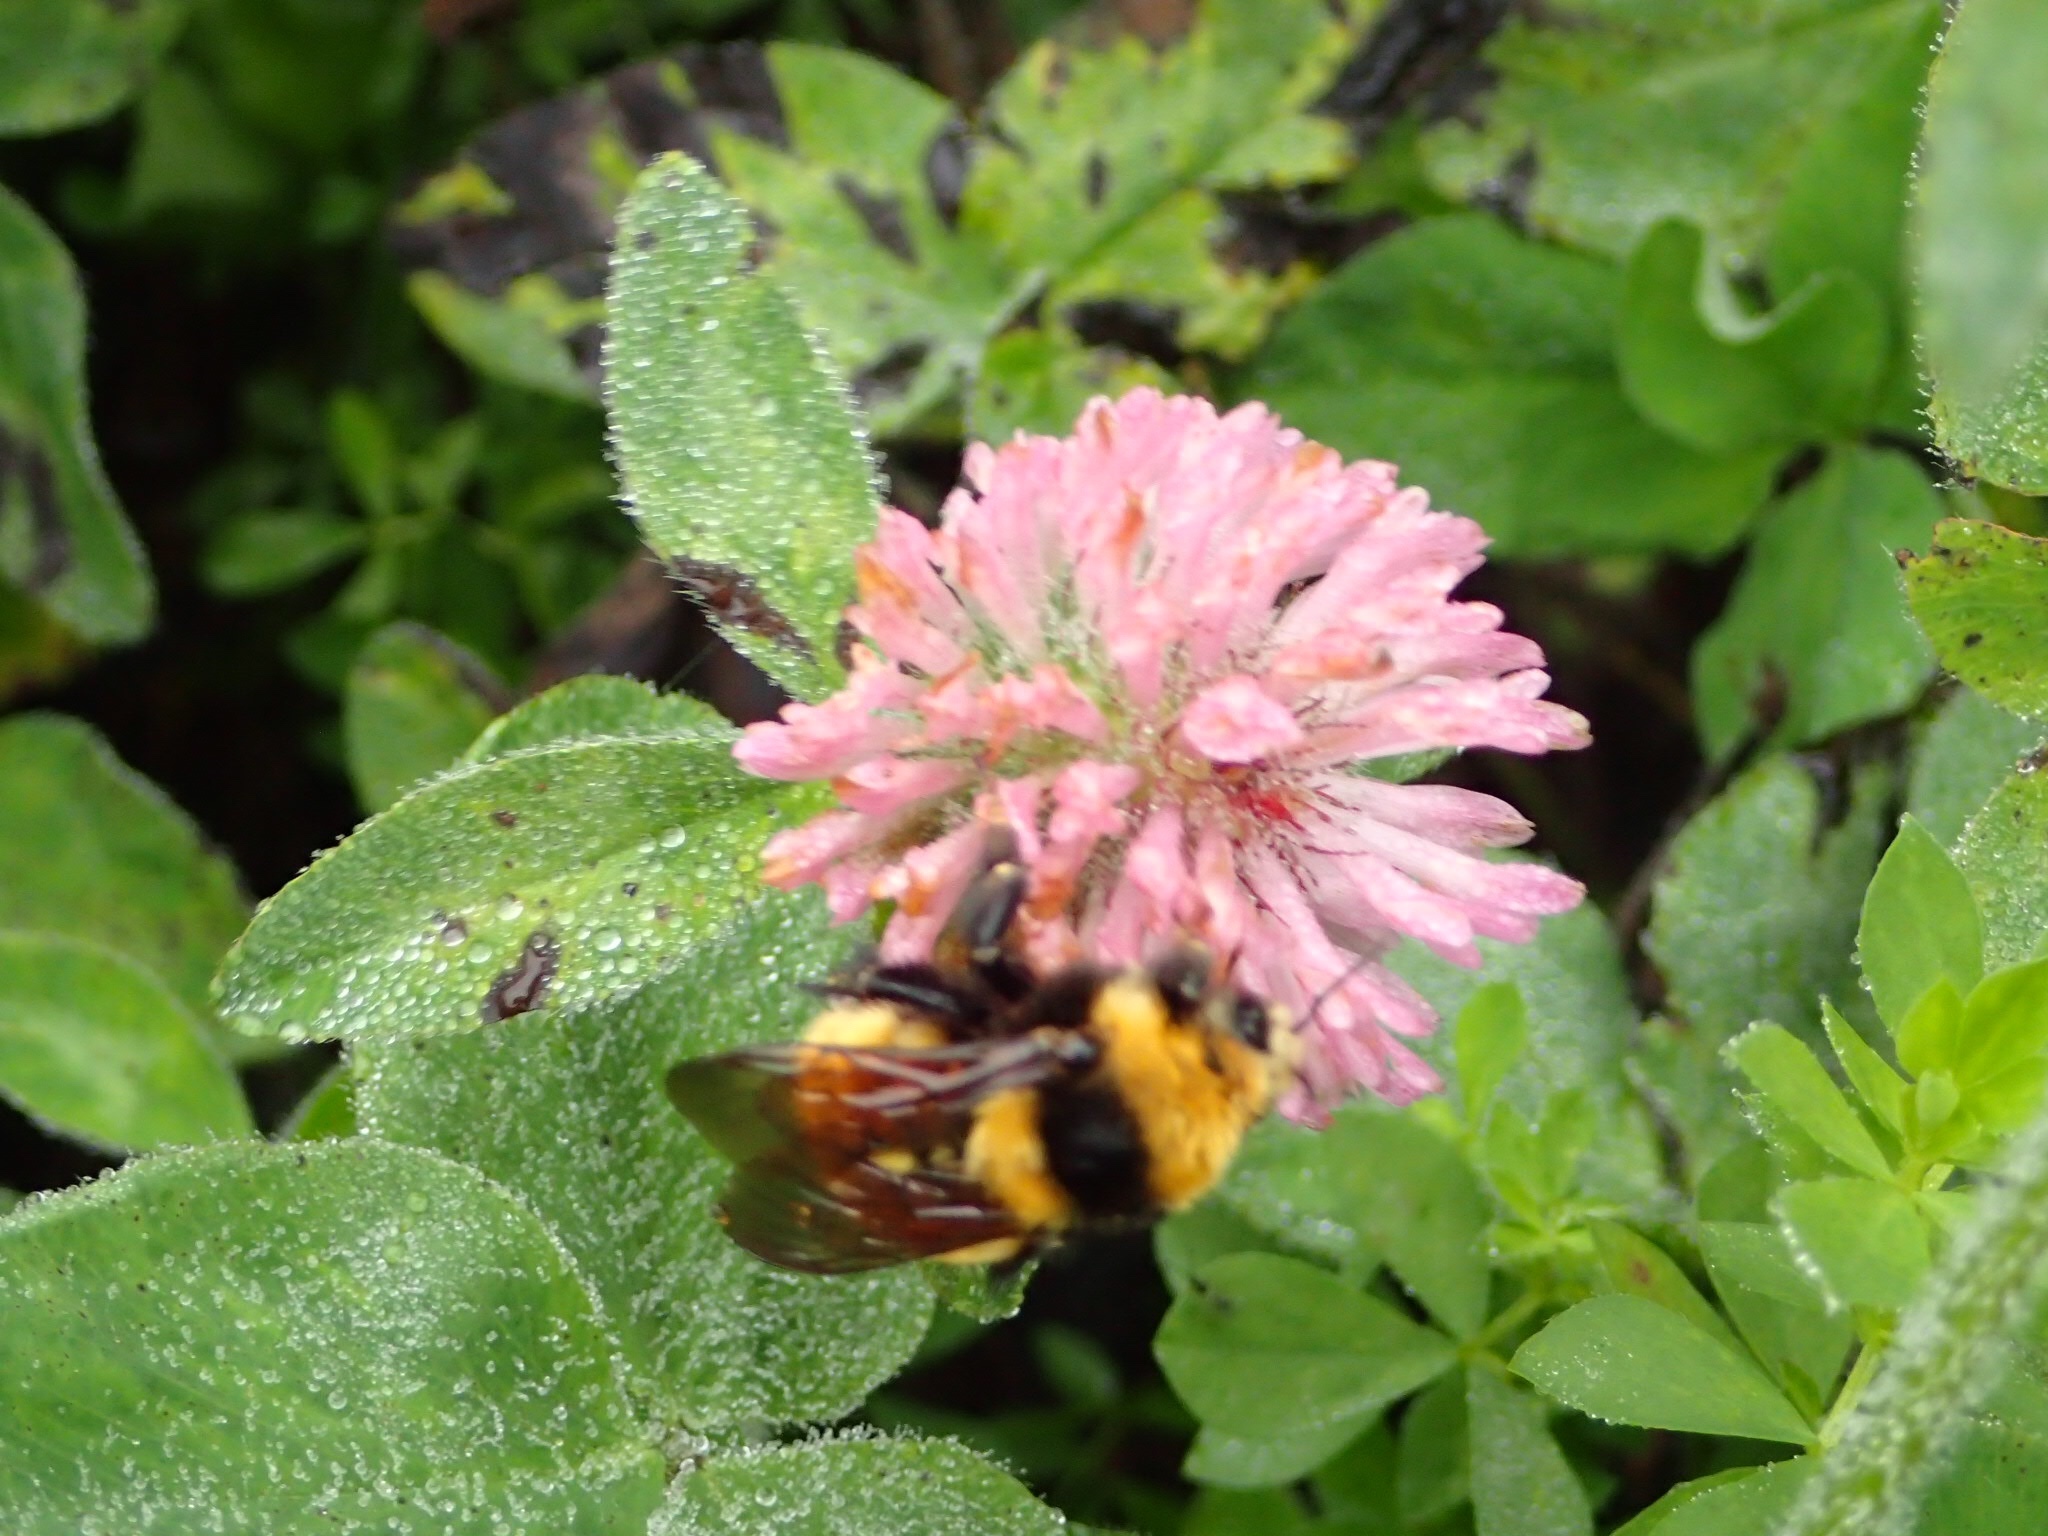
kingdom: Animalia
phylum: Arthropoda
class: Insecta
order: Hymenoptera
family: Apidae
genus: Bombus
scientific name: Bombus borealis
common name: Northern amber bumble bee
